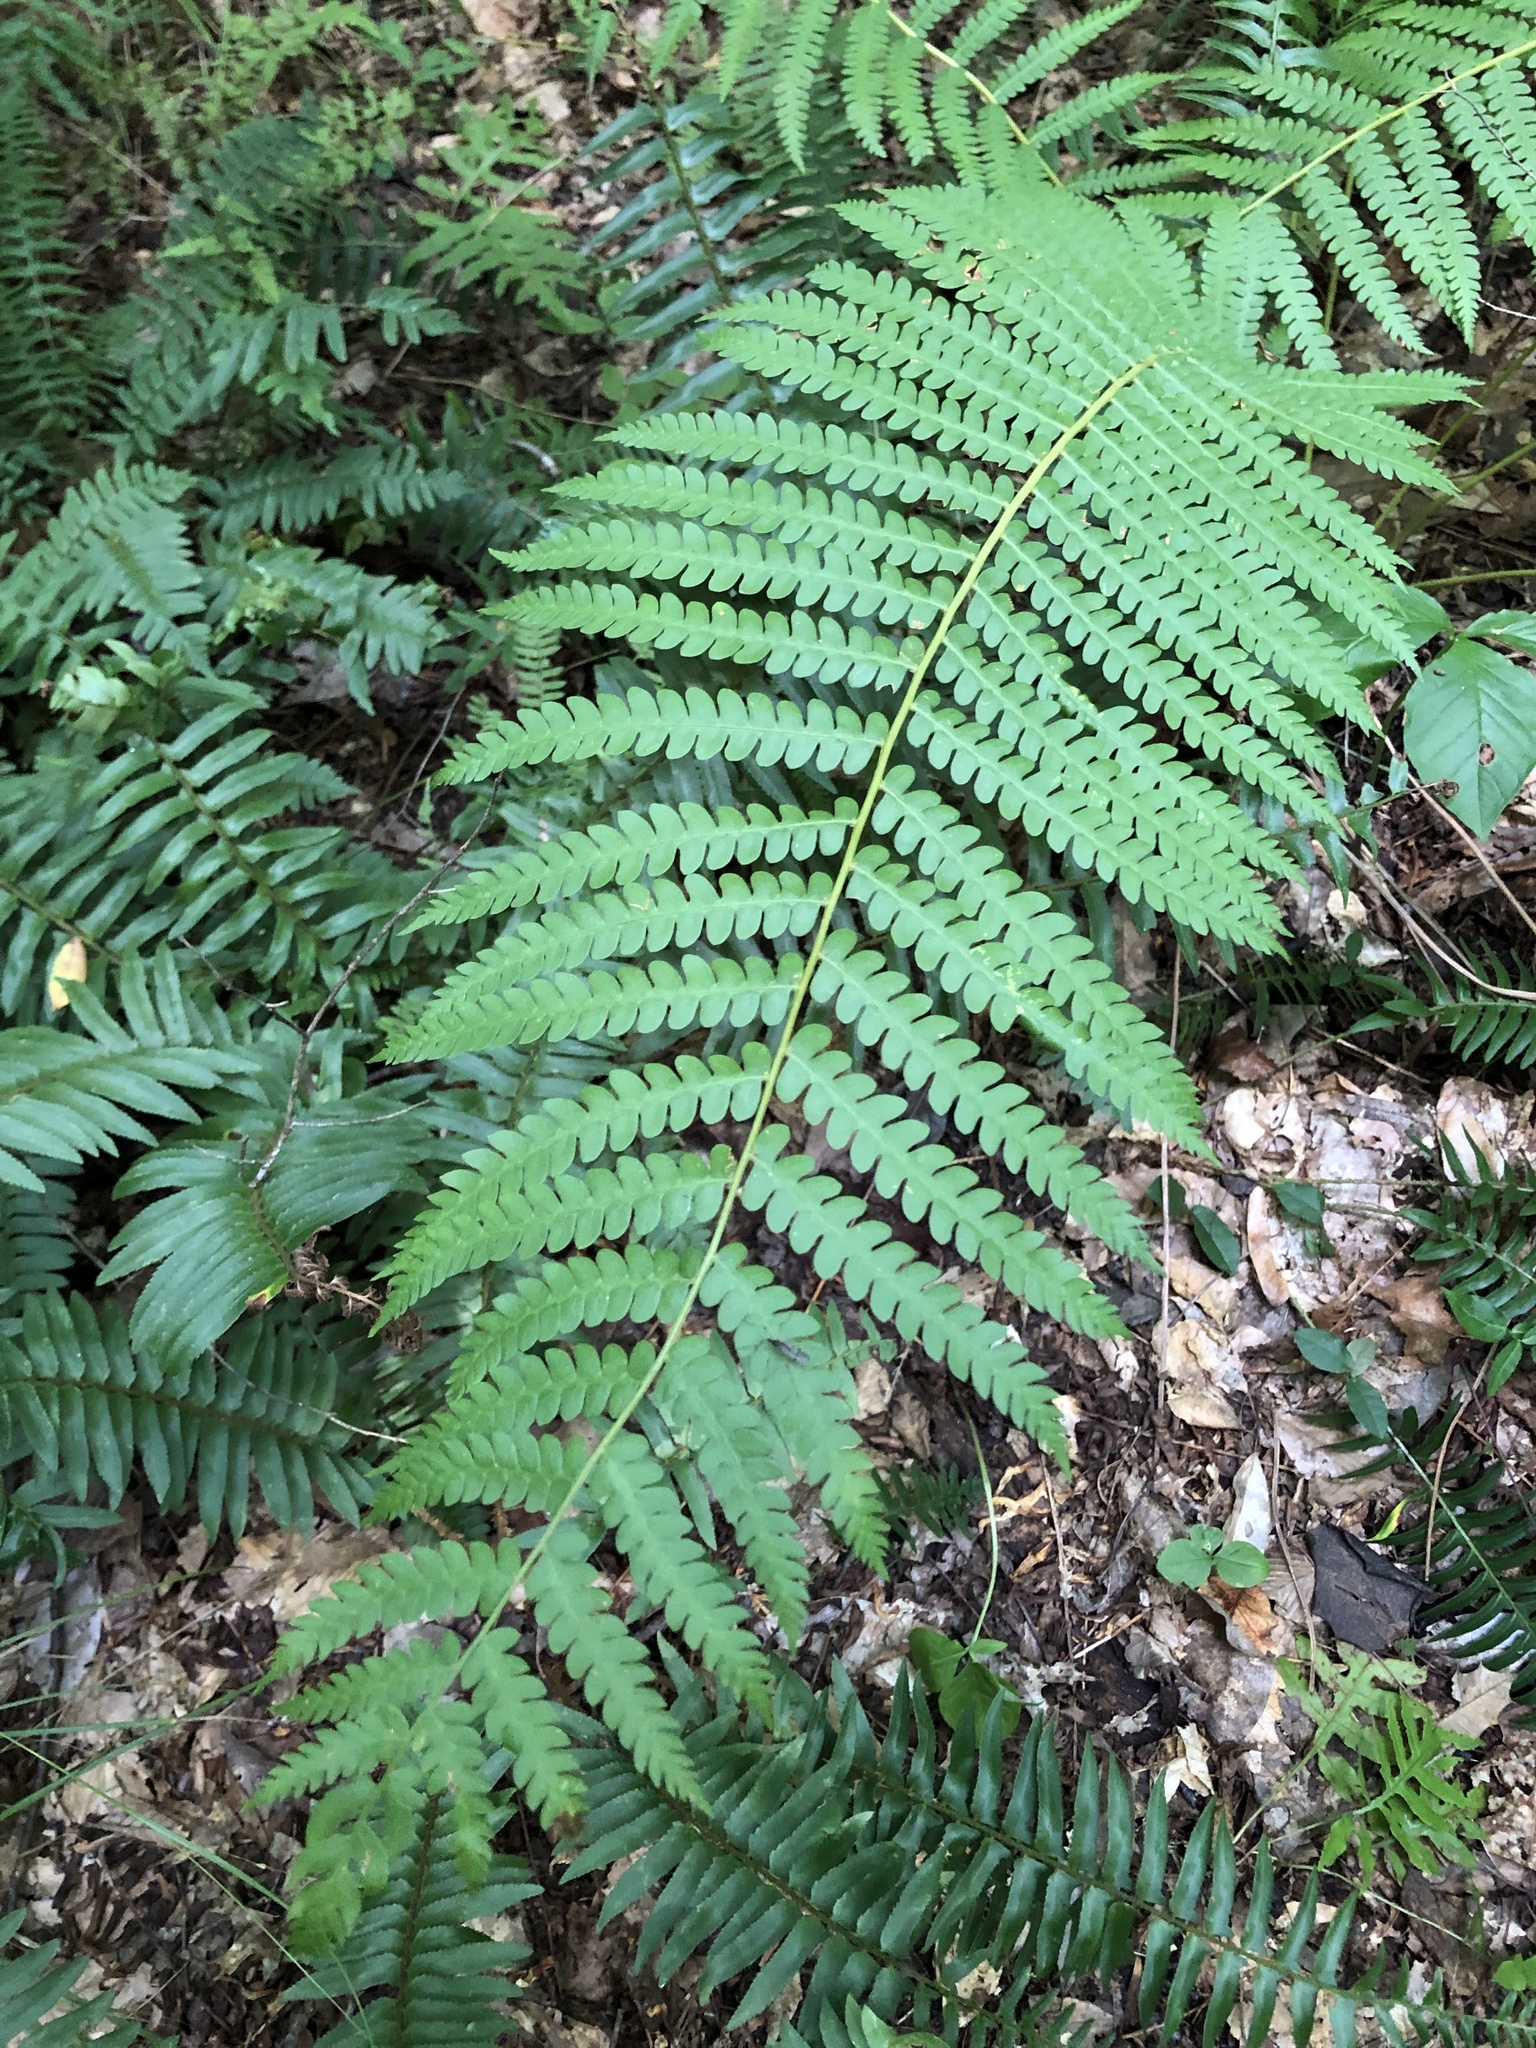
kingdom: Plantae
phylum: Tracheophyta
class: Polypodiopsida
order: Osmundales
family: Osmundaceae
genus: Osmundastrum
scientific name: Osmundastrum cinnamomeum
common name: Cinnamon fern
